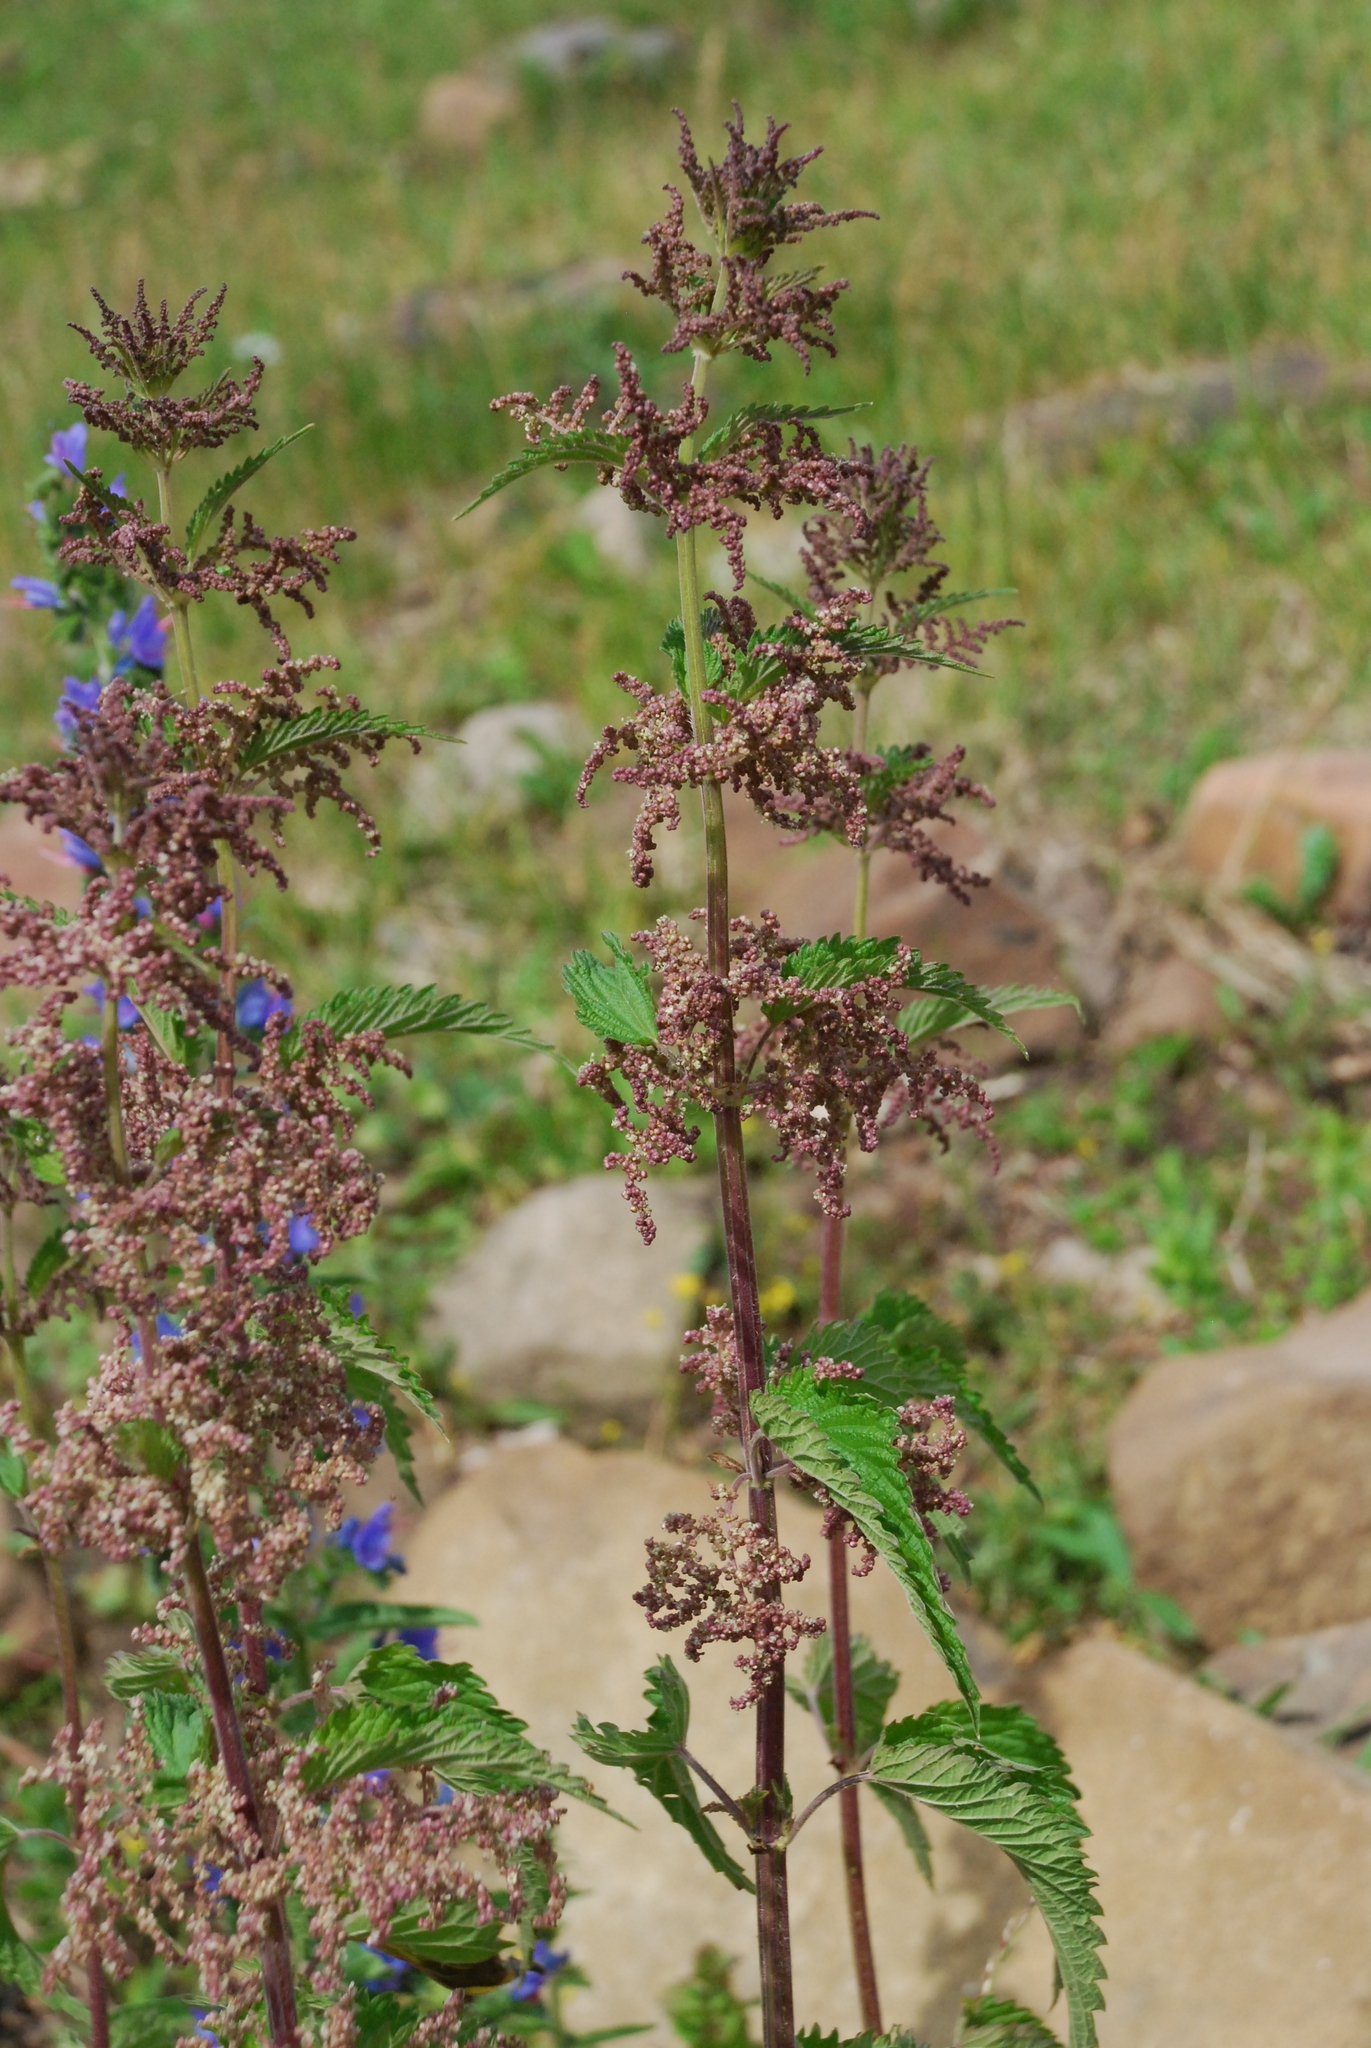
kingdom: Plantae
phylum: Tracheophyta
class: Magnoliopsida
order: Rosales
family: Urticaceae
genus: Urtica
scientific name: Urtica dioica
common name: Common nettle
